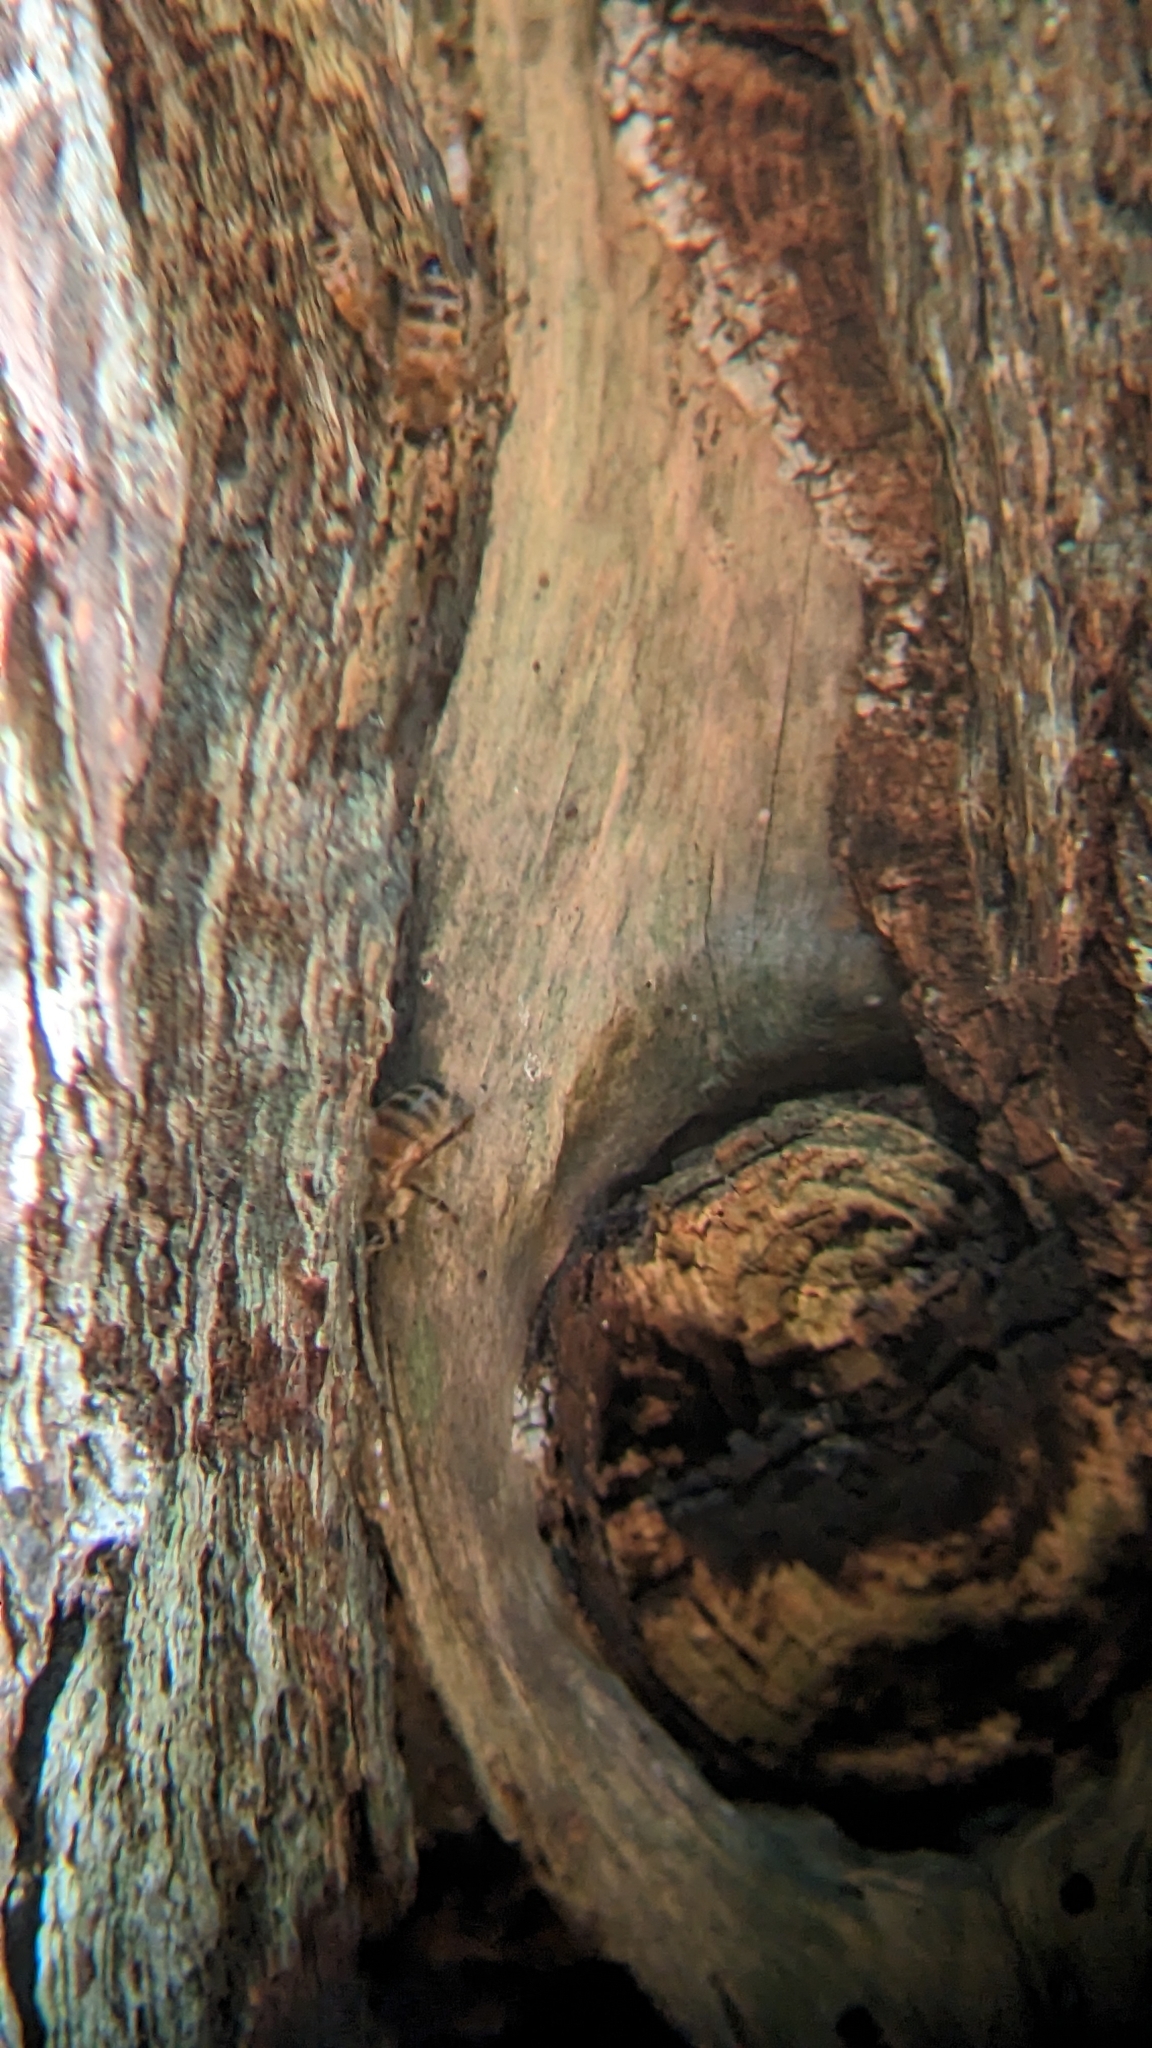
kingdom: Animalia
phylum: Arthropoda
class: Insecta
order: Hymenoptera
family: Apidae
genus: Apis
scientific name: Apis mellifera
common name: Honey bee
